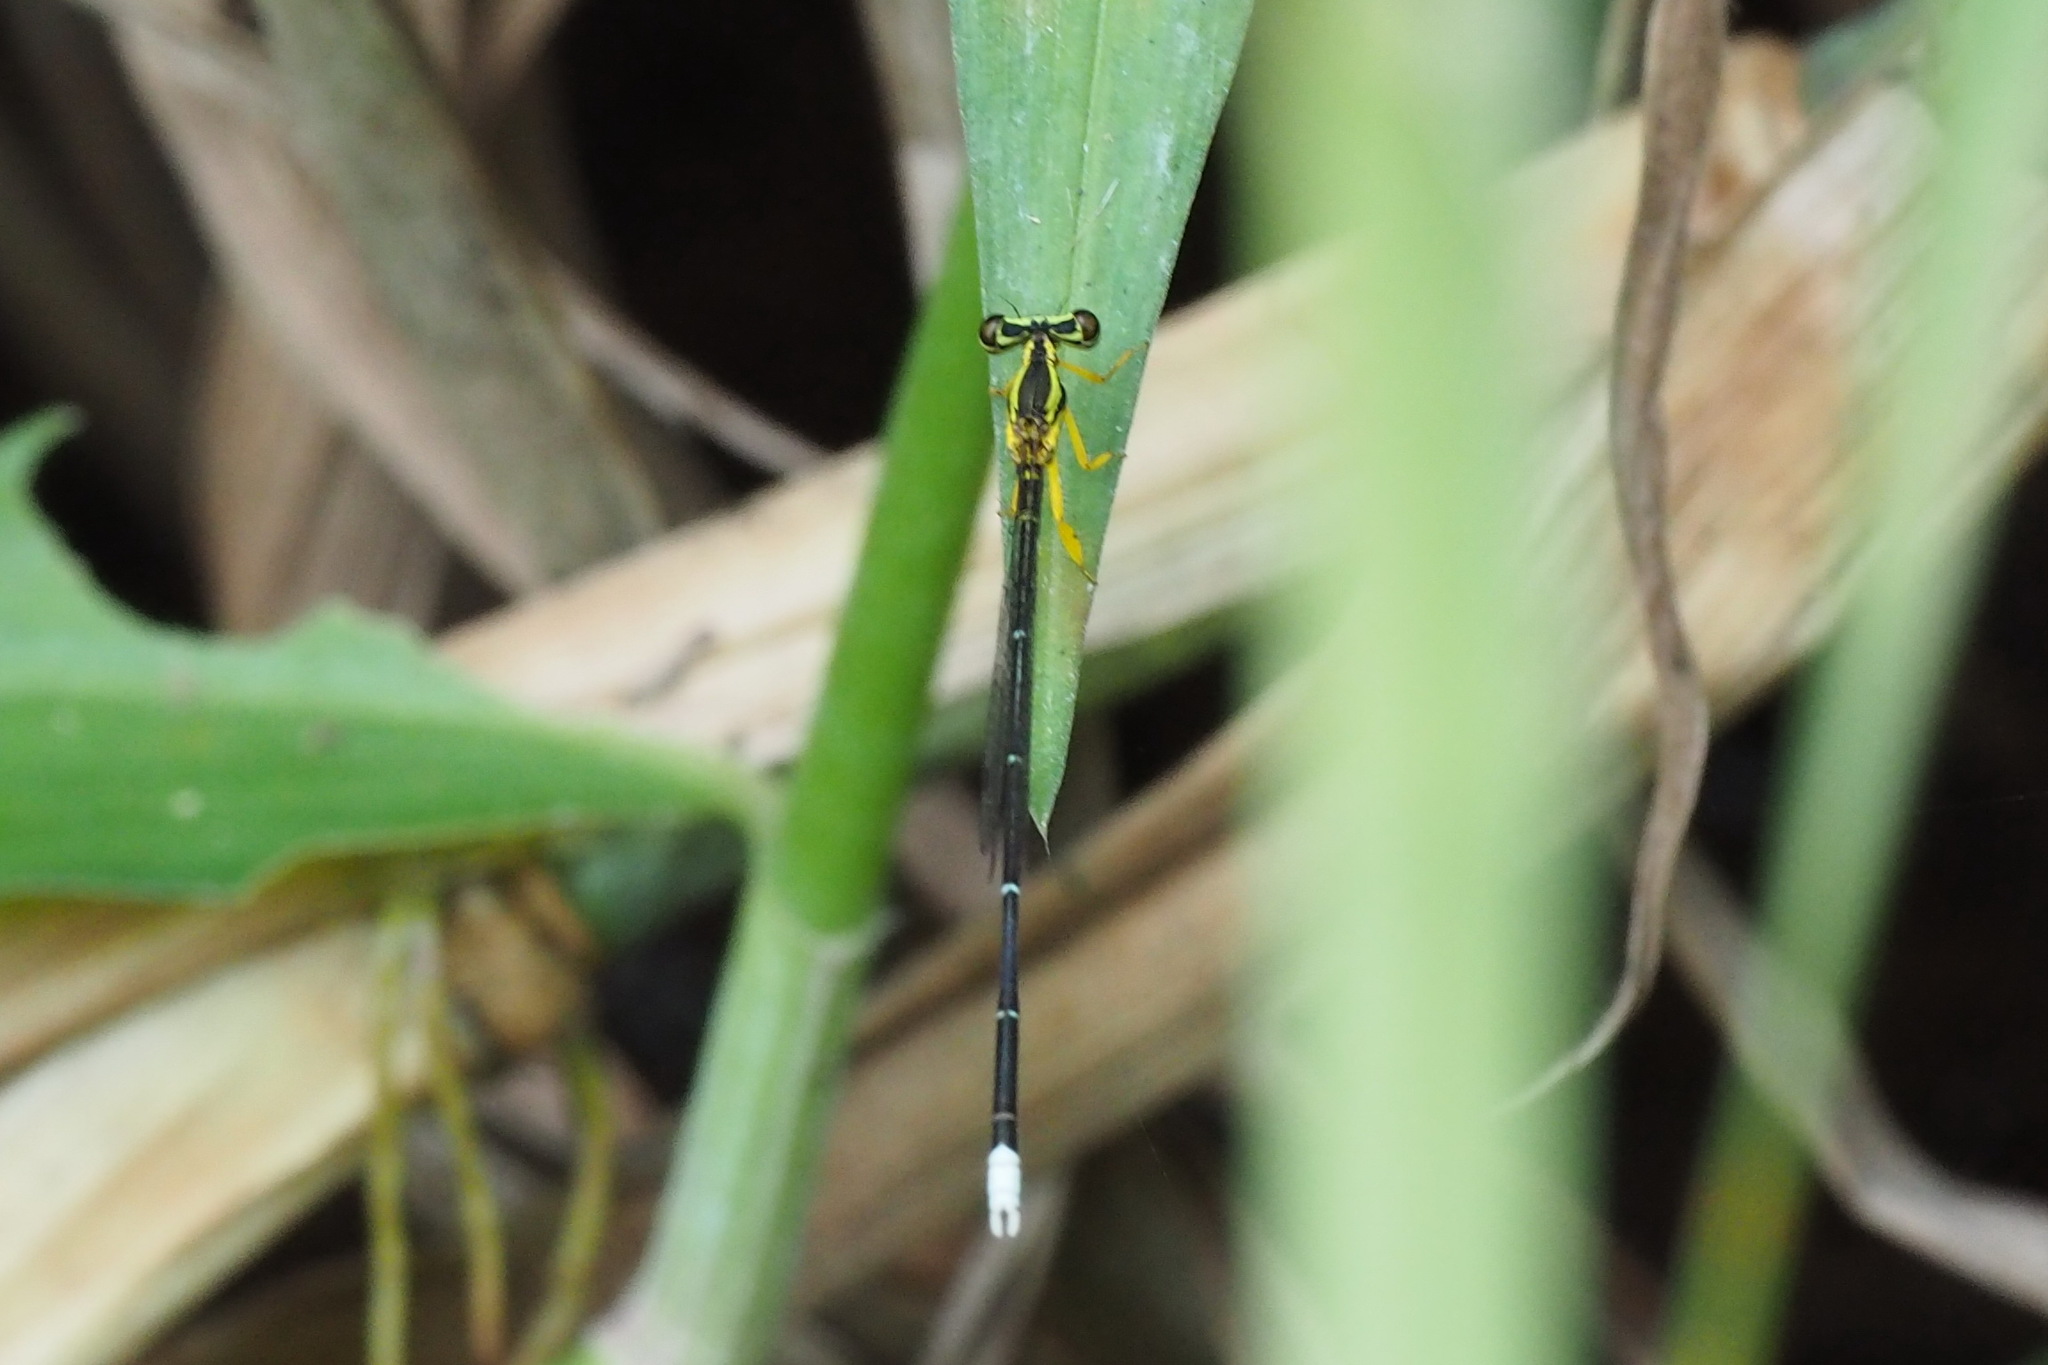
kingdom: Animalia
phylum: Arthropoda
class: Insecta
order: Odonata
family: Platycnemididae
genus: Copera
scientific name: Copera marginipes
